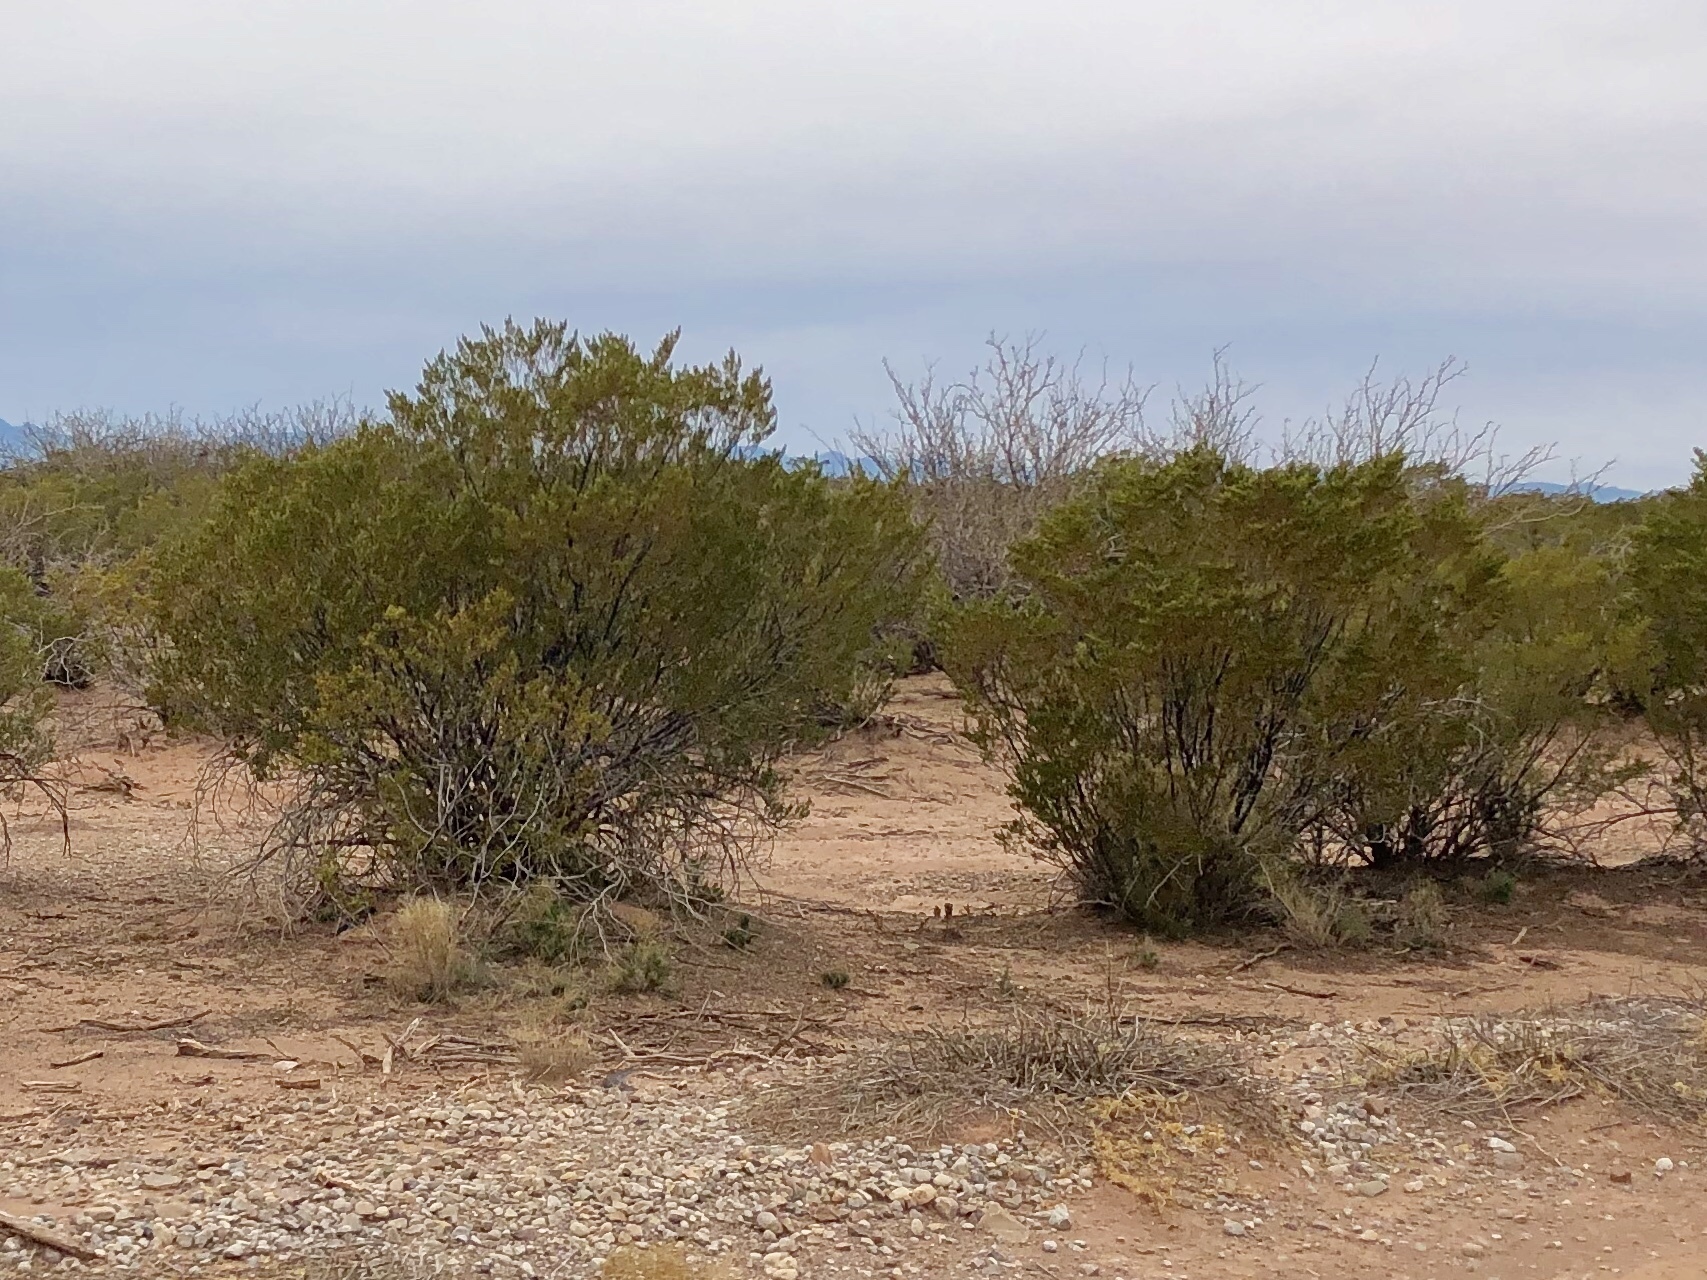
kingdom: Plantae
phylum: Tracheophyta
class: Magnoliopsida
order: Zygophyllales
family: Zygophyllaceae
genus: Larrea
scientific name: Larrea tridentata
